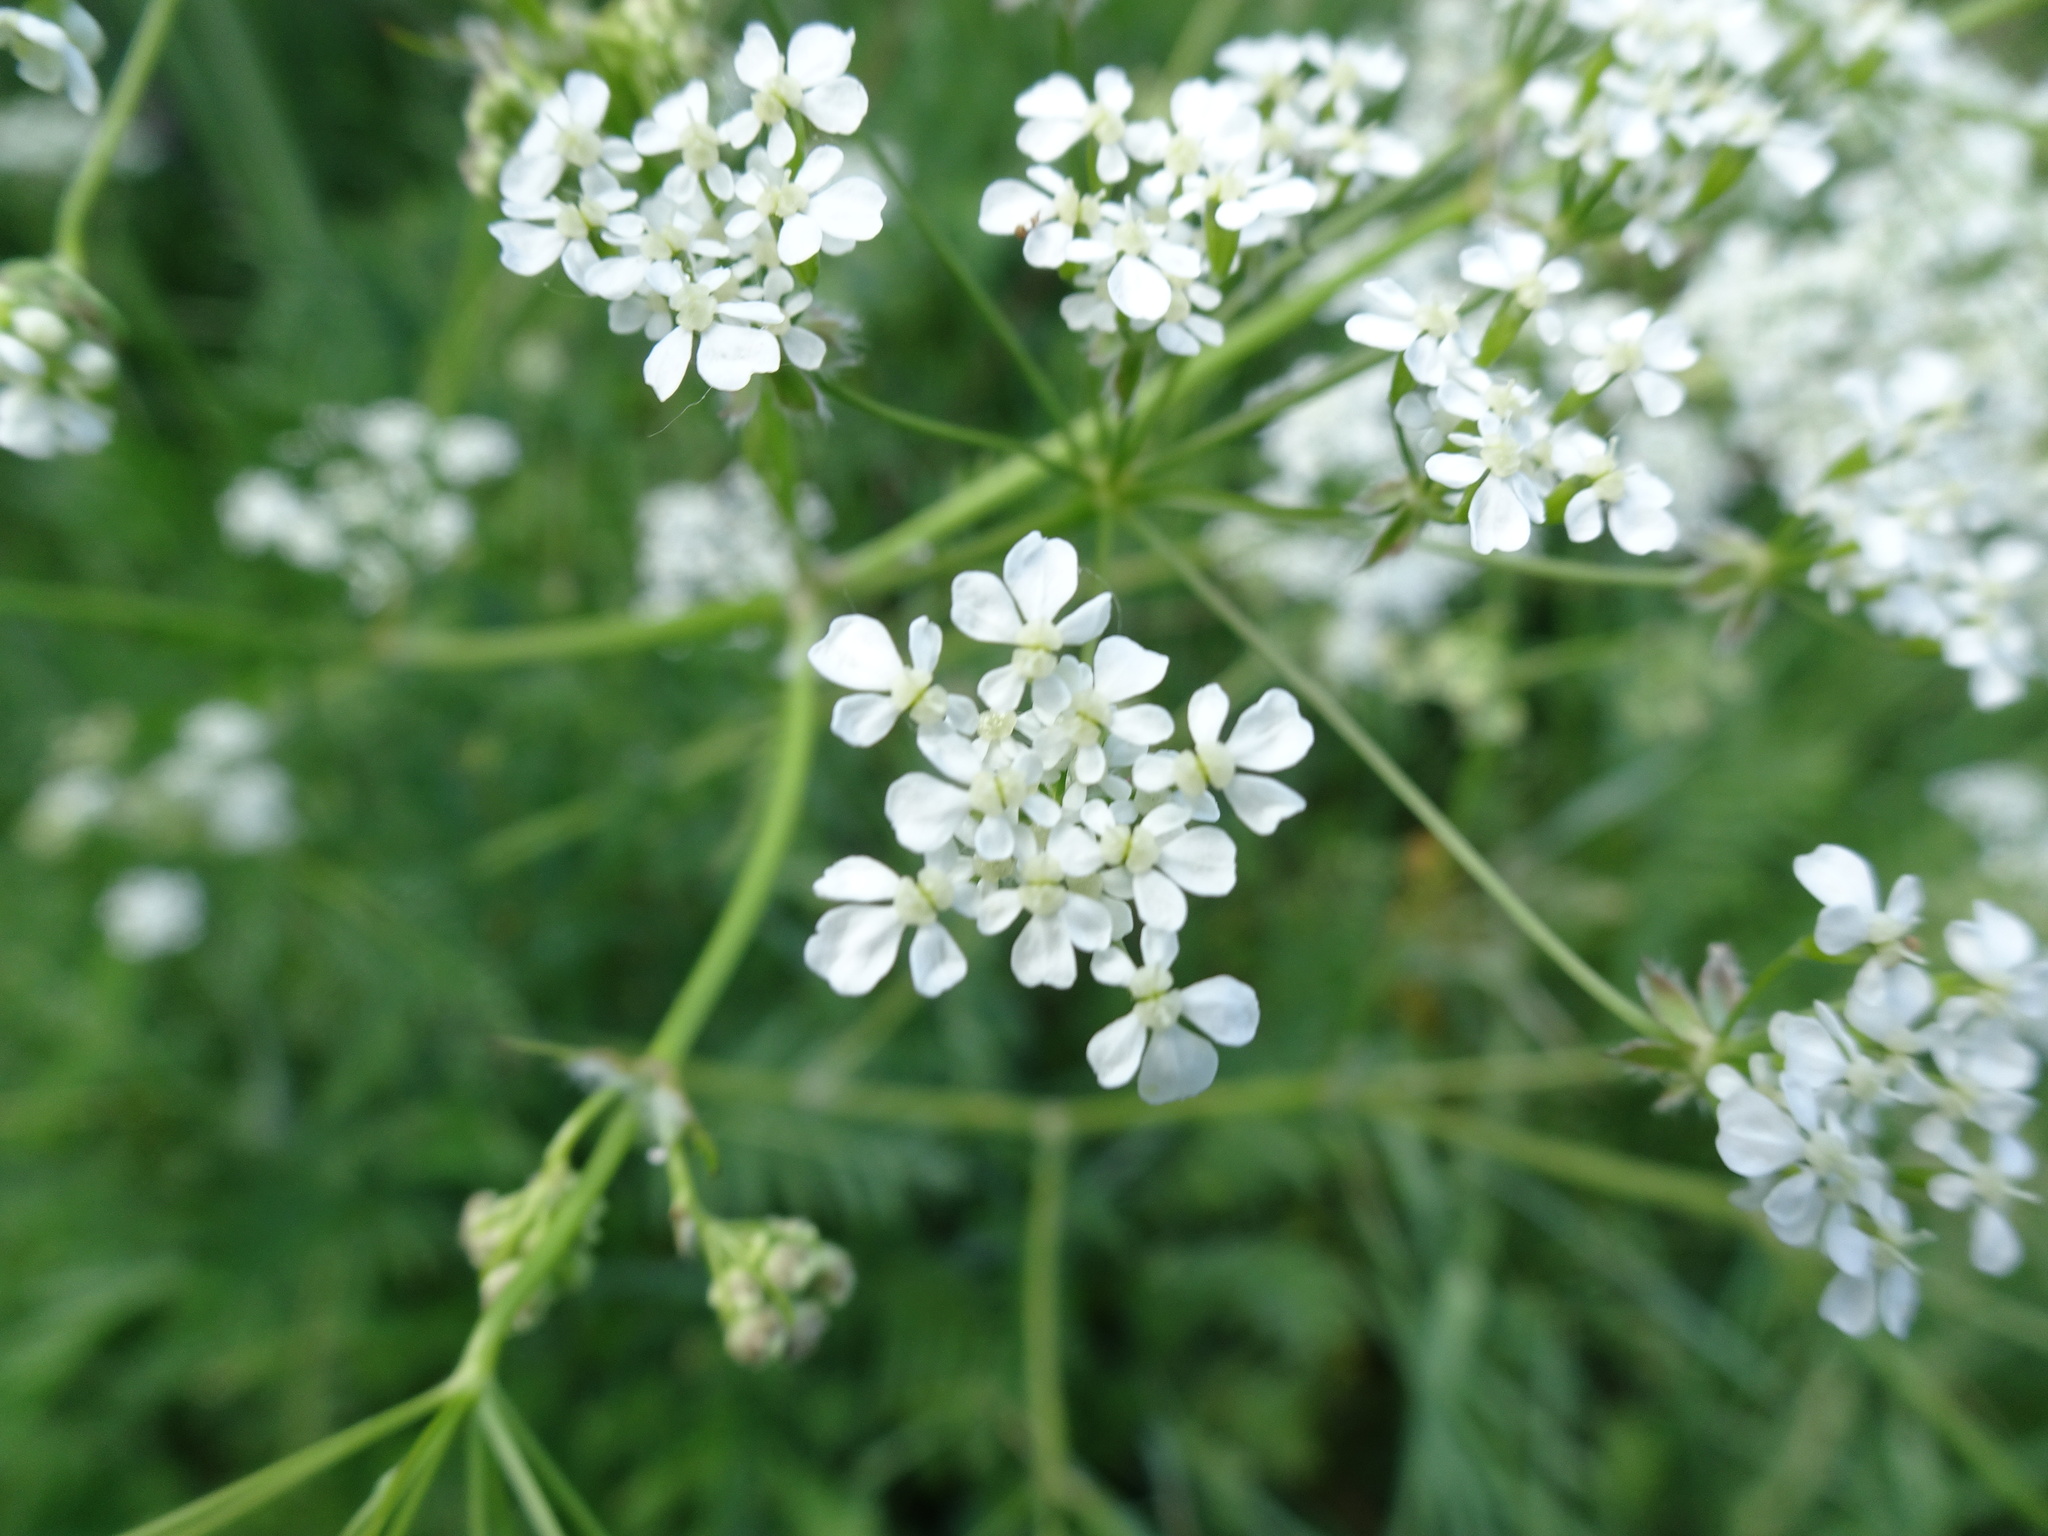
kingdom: Plantae
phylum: Tracheophyta
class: Magnoliopsida
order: Apiales
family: Apiaceae
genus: Anthriscus
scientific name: Anthriscus sylvestris
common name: Cow parsley
